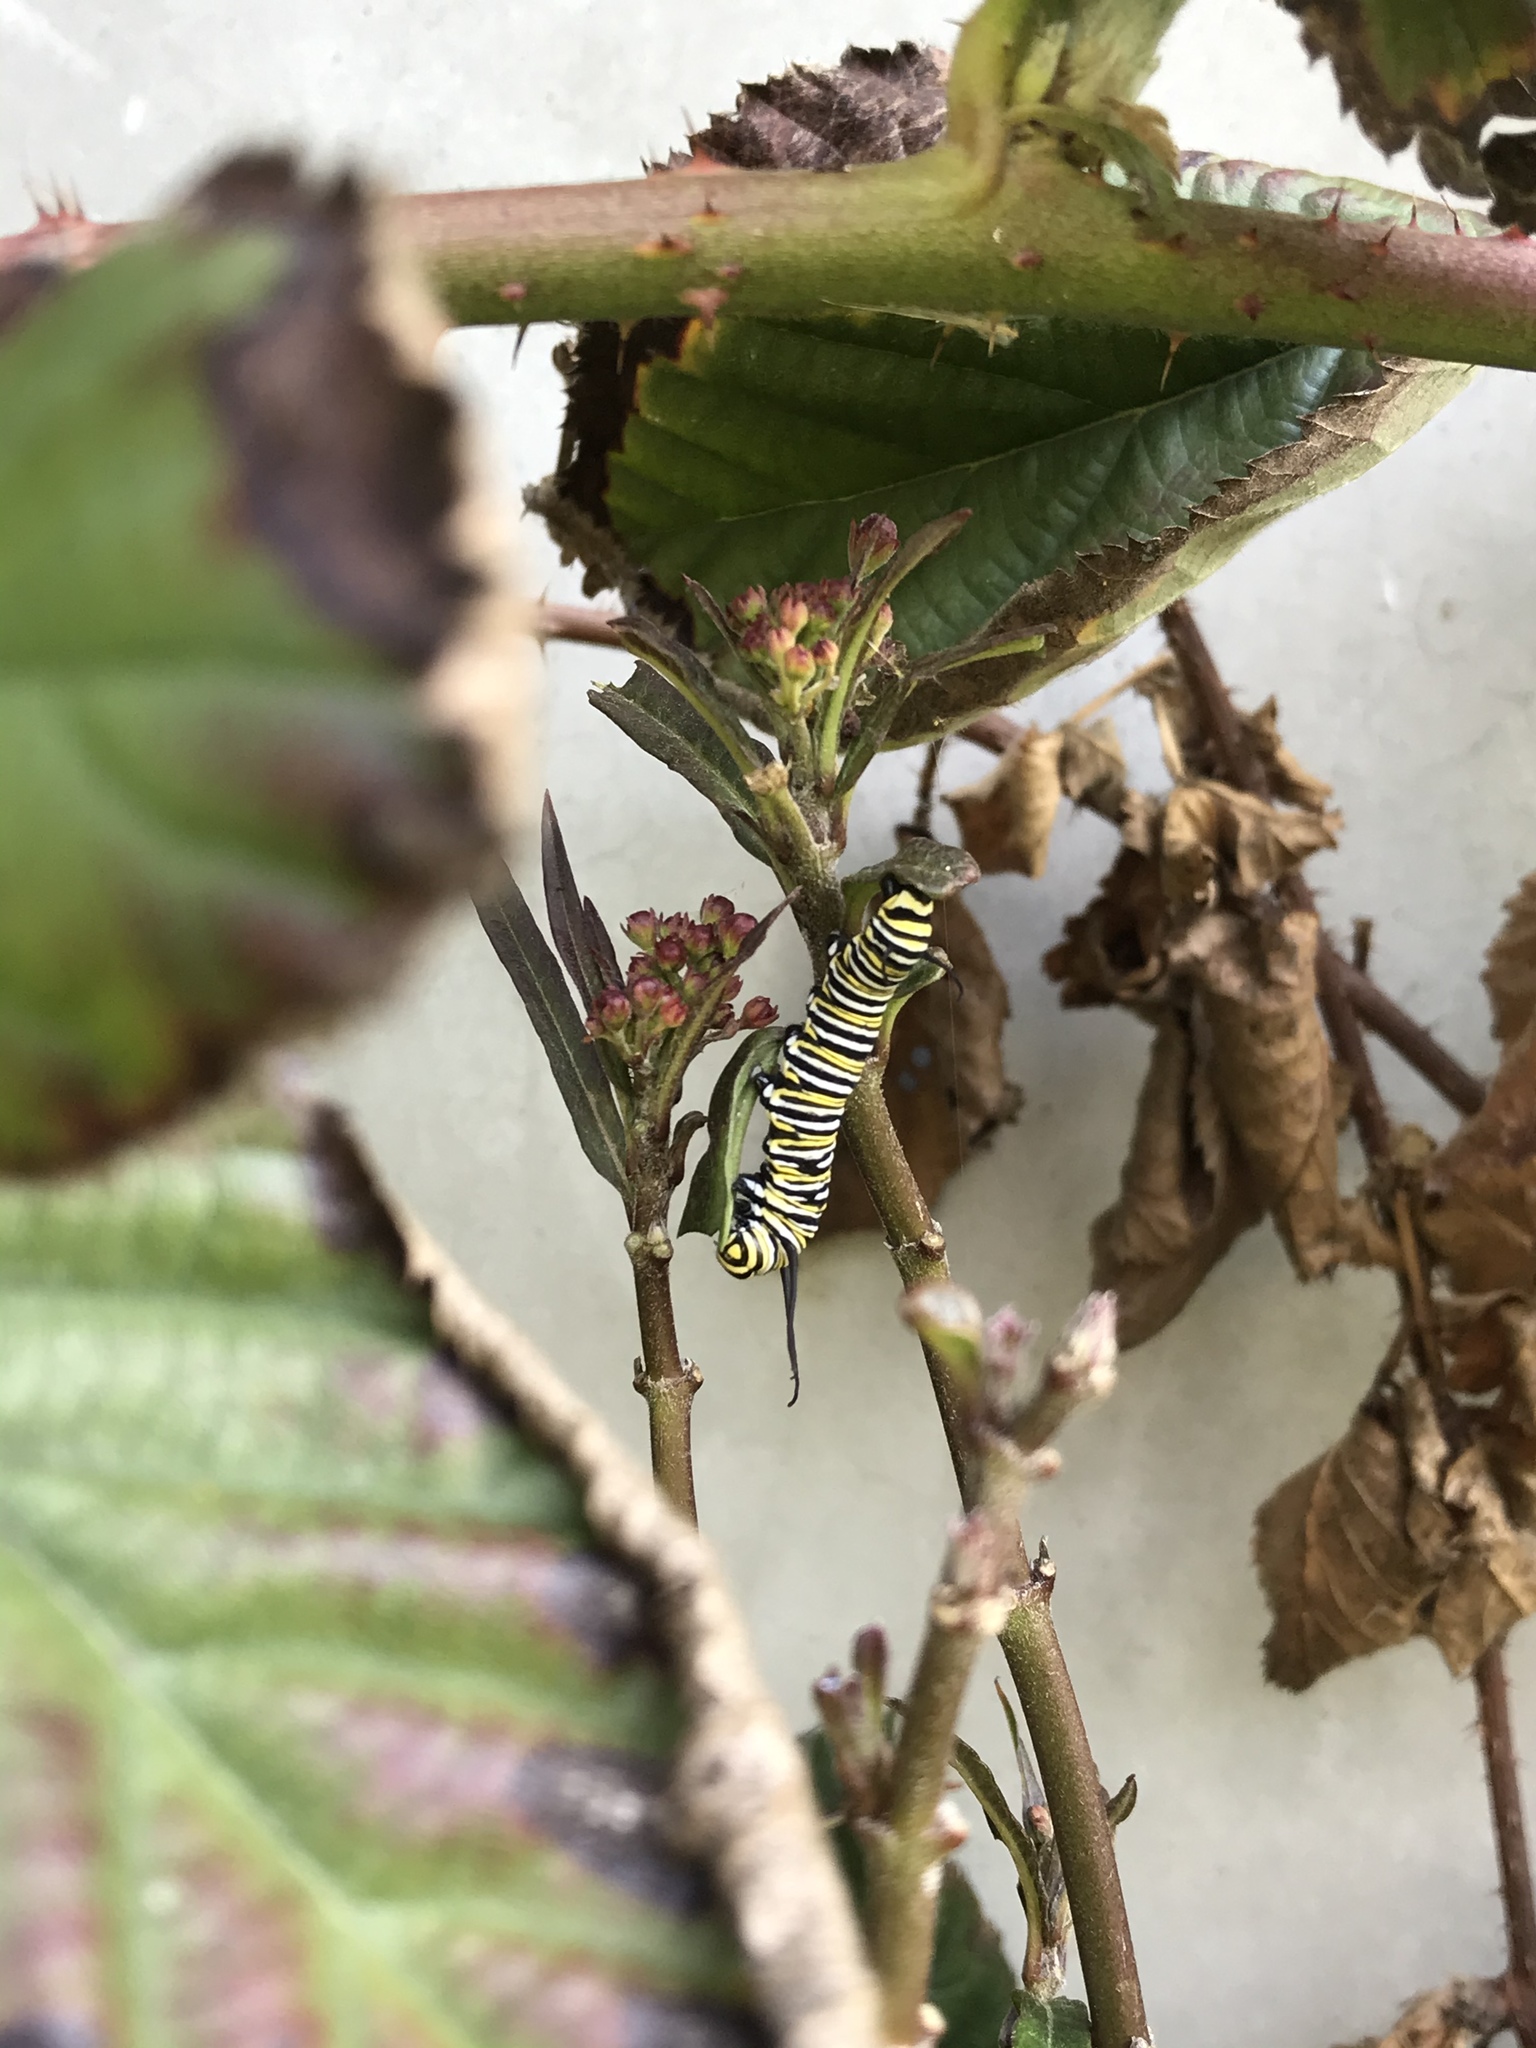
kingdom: Animalia
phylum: Arthropoda
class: Insecta
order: Lepidoptera
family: Nymphalidae
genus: Danaus
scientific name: Danaus plexippus
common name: Monarch
